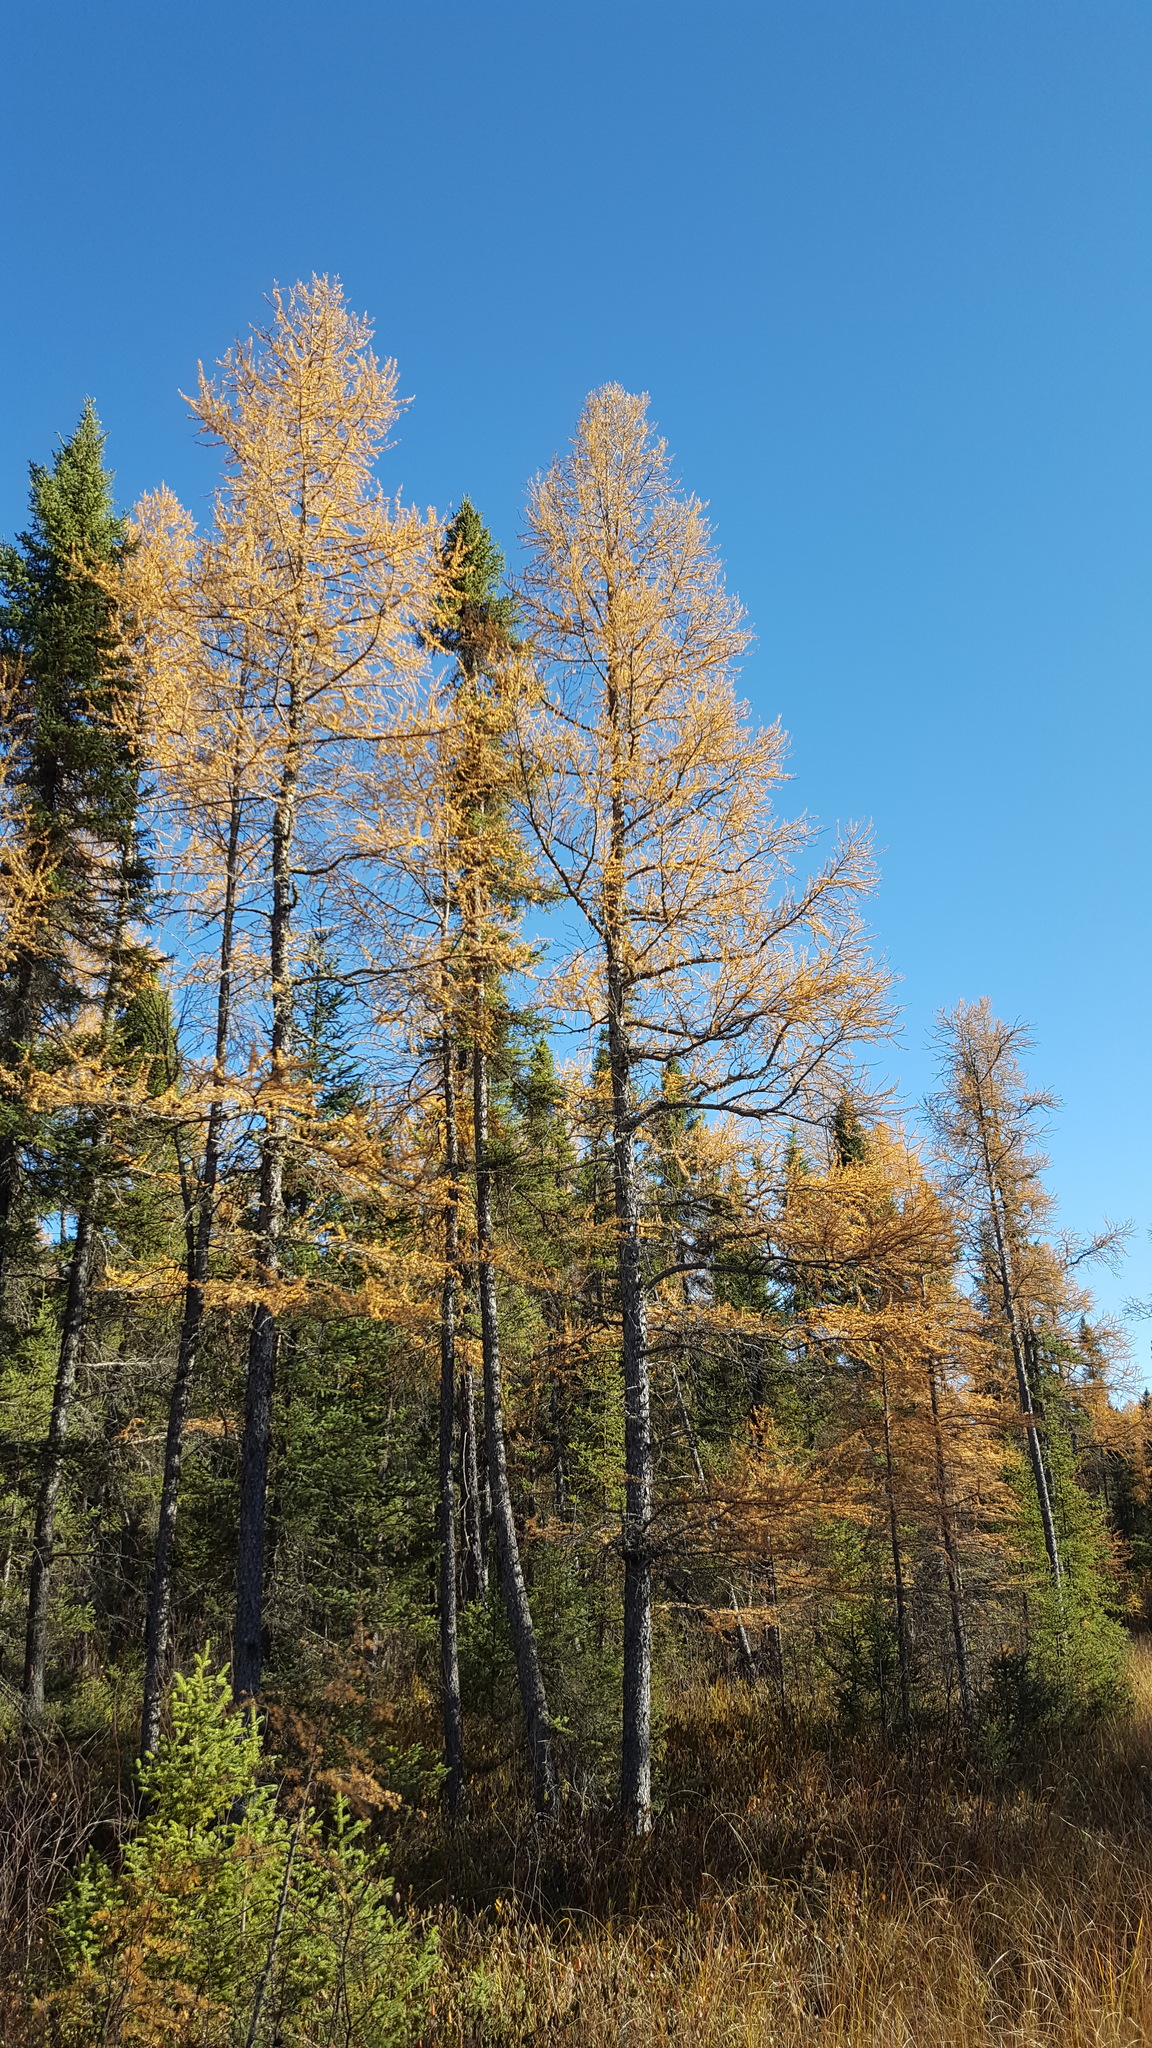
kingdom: Plantae
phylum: Tracheophyta
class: Pinopsida
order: Pinales
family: Pinaceae
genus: Larix
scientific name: Larix laricina
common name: American larch
